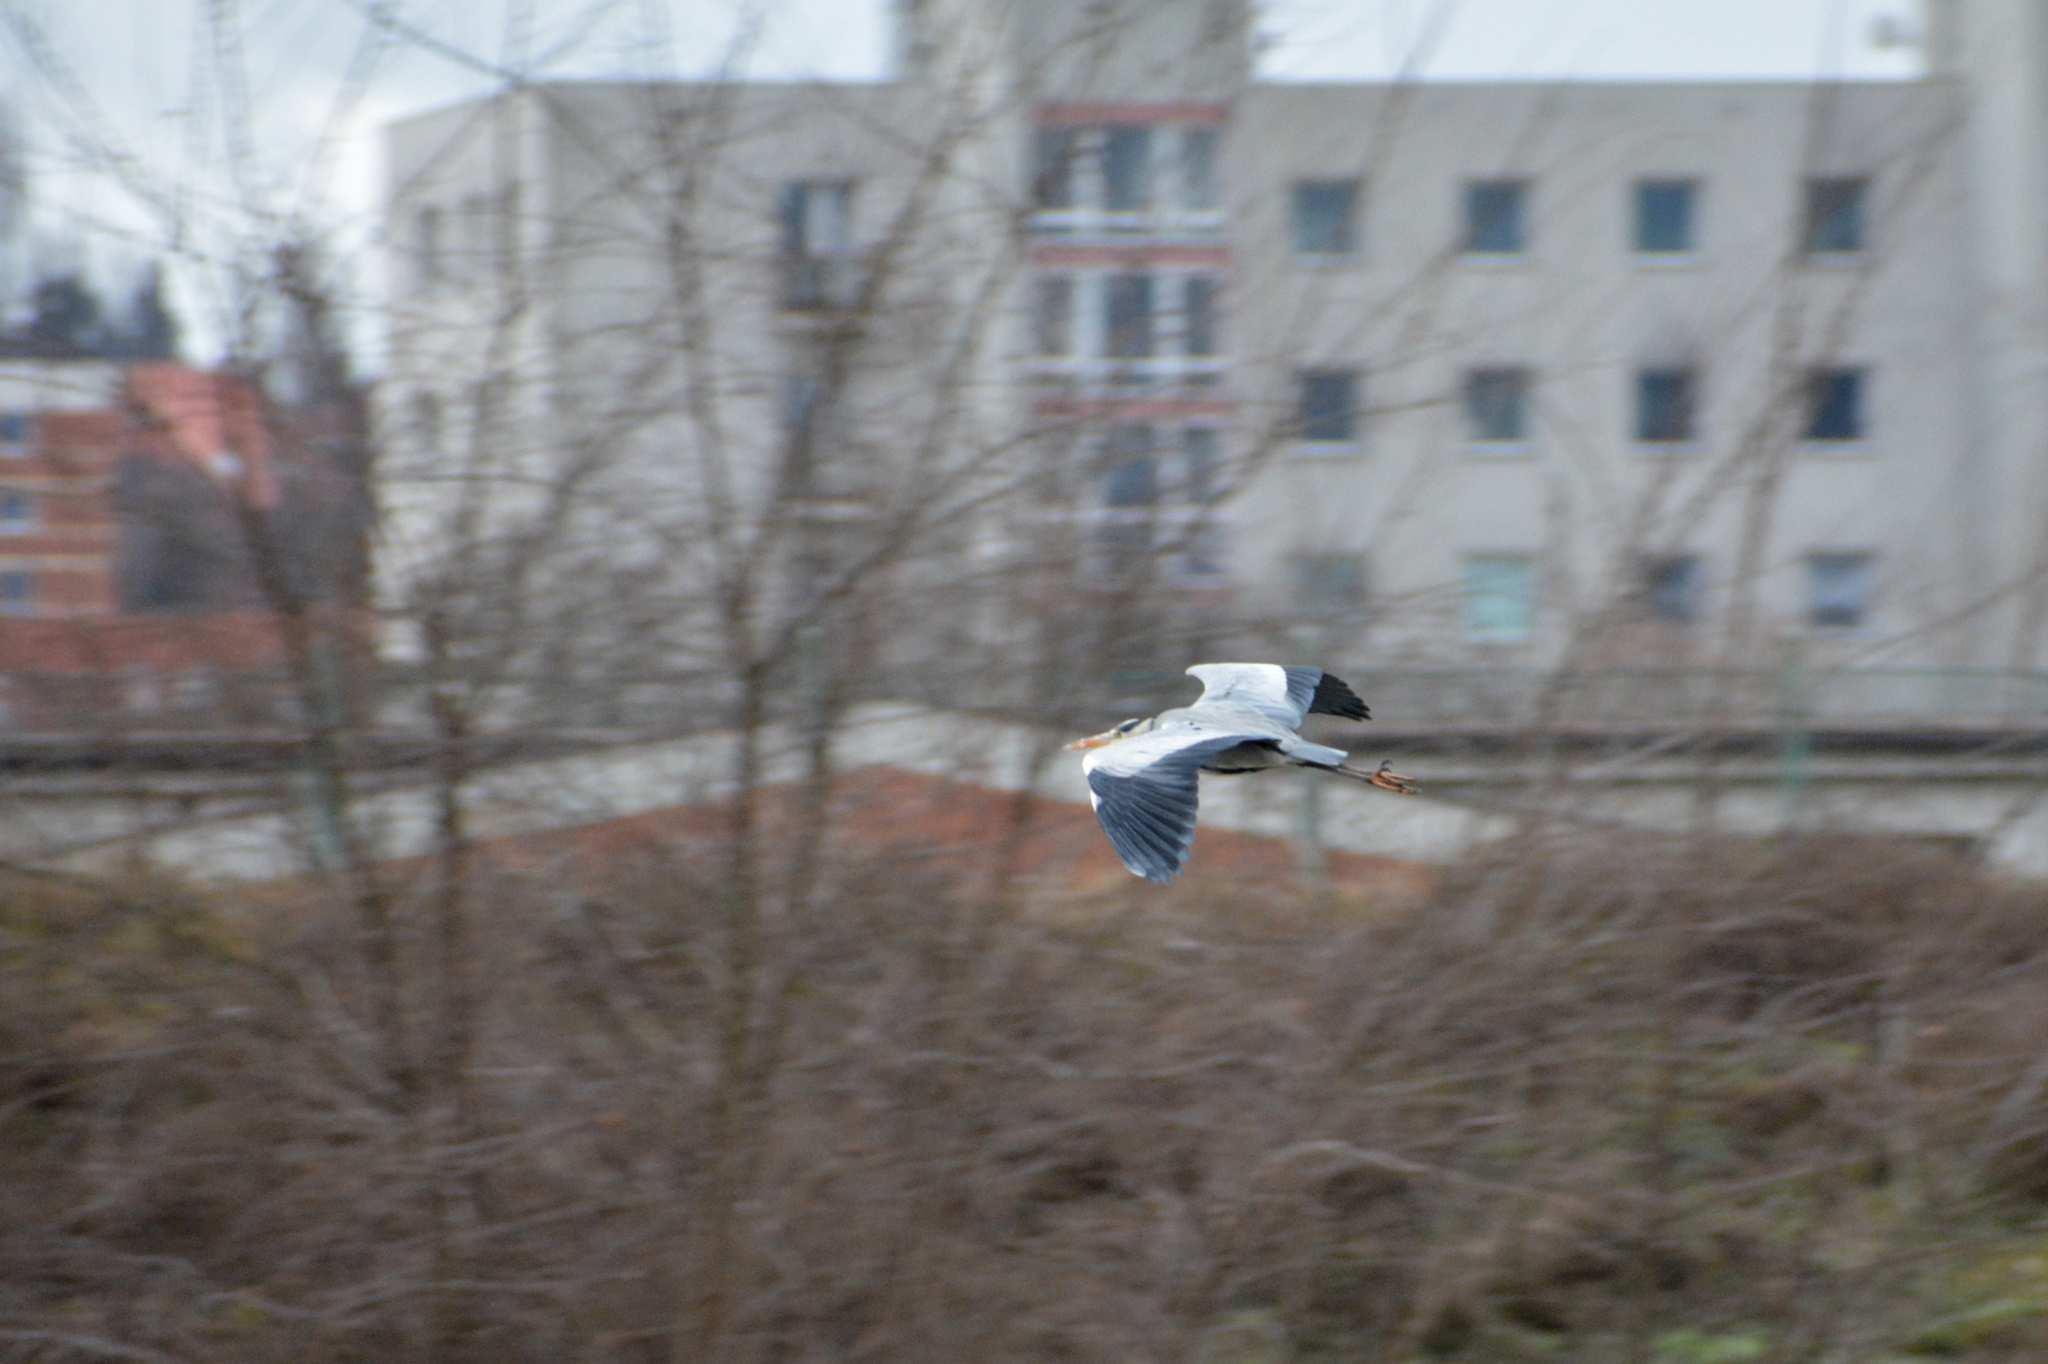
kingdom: Animalia
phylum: Chordata
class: Aves
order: Pelecaniformes
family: Ardeidae
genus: Ardea
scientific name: Ardea cinerea
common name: Grey heron
